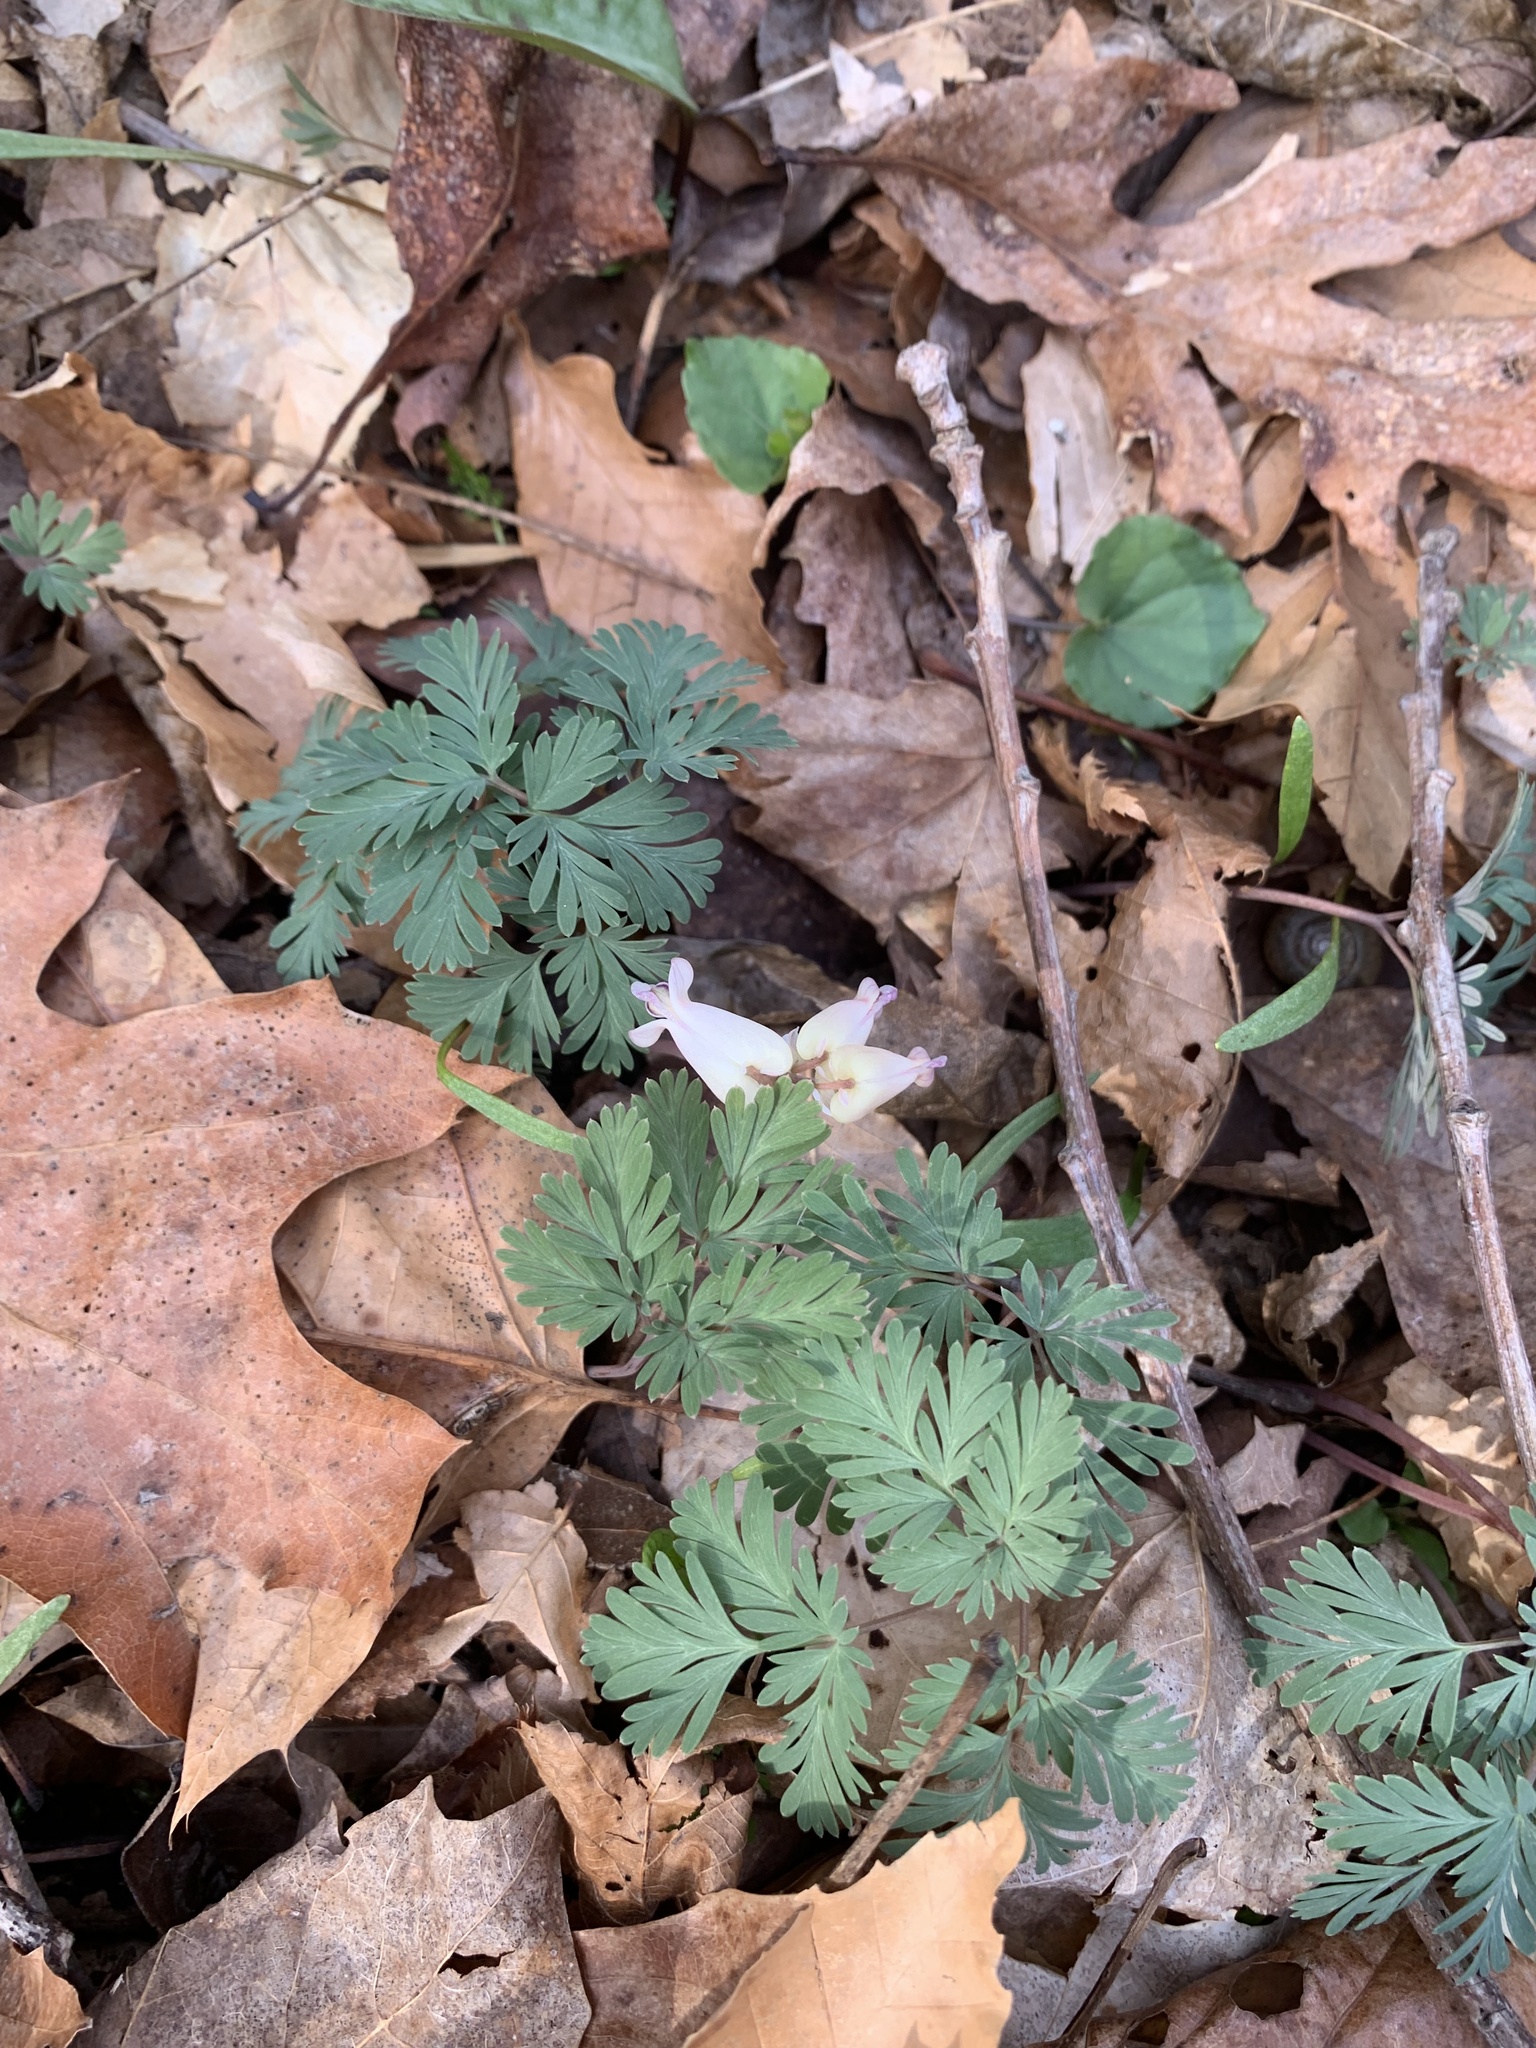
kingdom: Plantae
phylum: Tracheophyta
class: Magnoliopsida
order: Ranunculales
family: Papaveraceae
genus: Dicentra
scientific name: Dicentra canadensis
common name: Squirrel-corn
